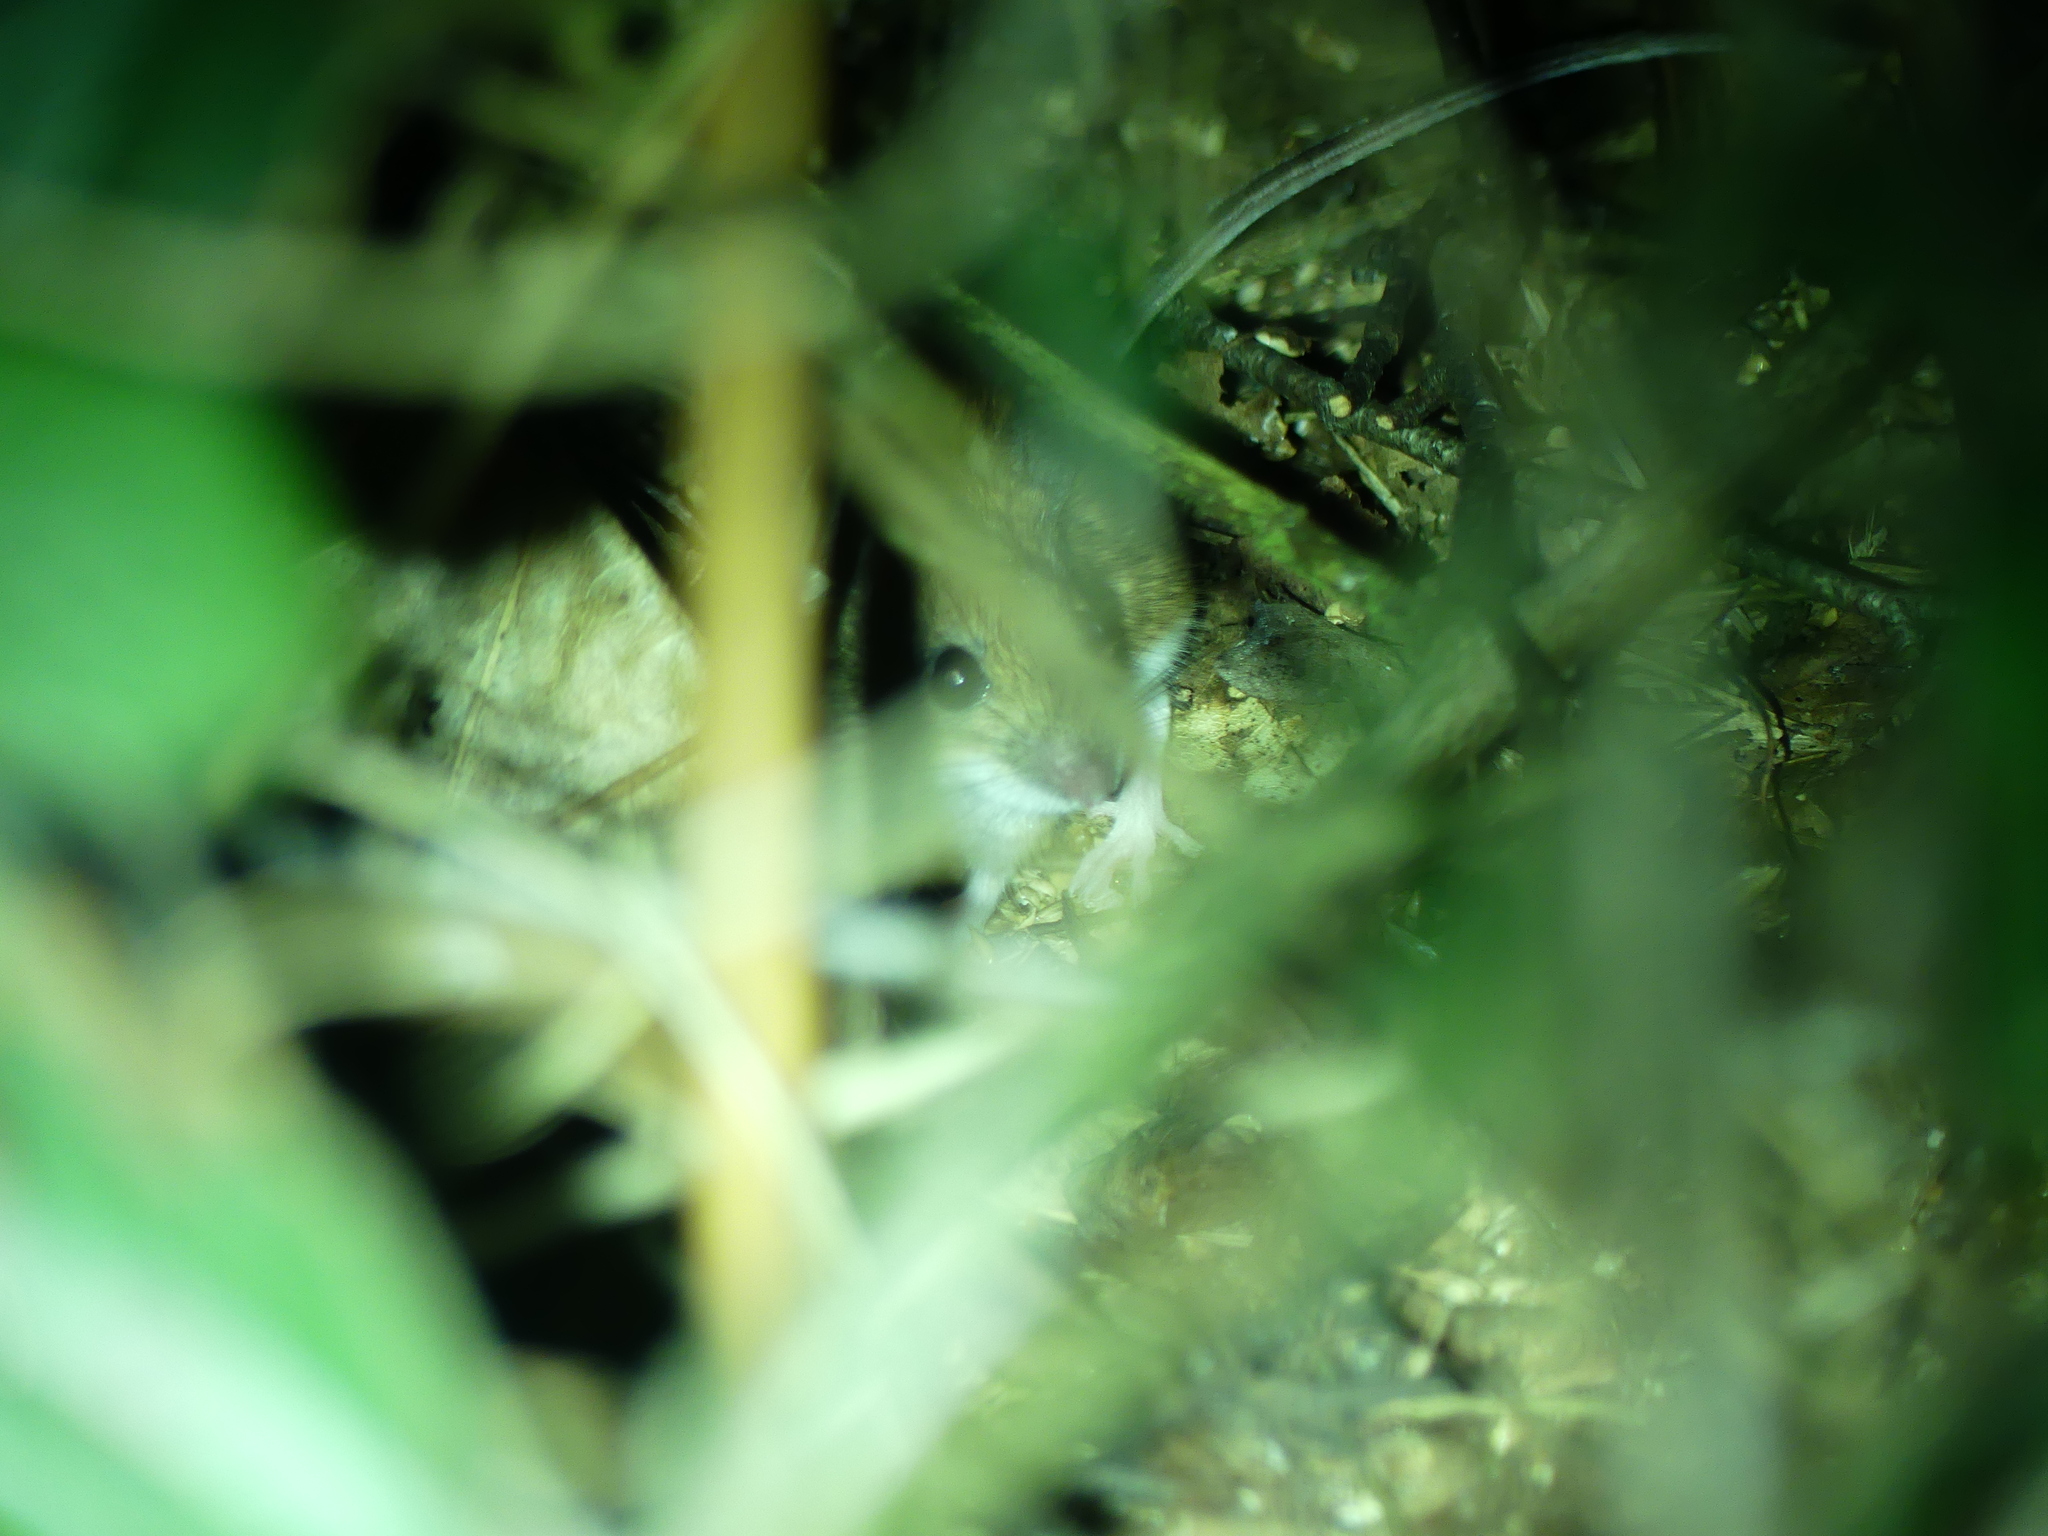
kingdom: Animalia
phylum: Chordata
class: Mammalia
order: Rodentia
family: Muridae
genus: Apodemus
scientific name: Apodemus sylvaticus
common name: Wood mouse
